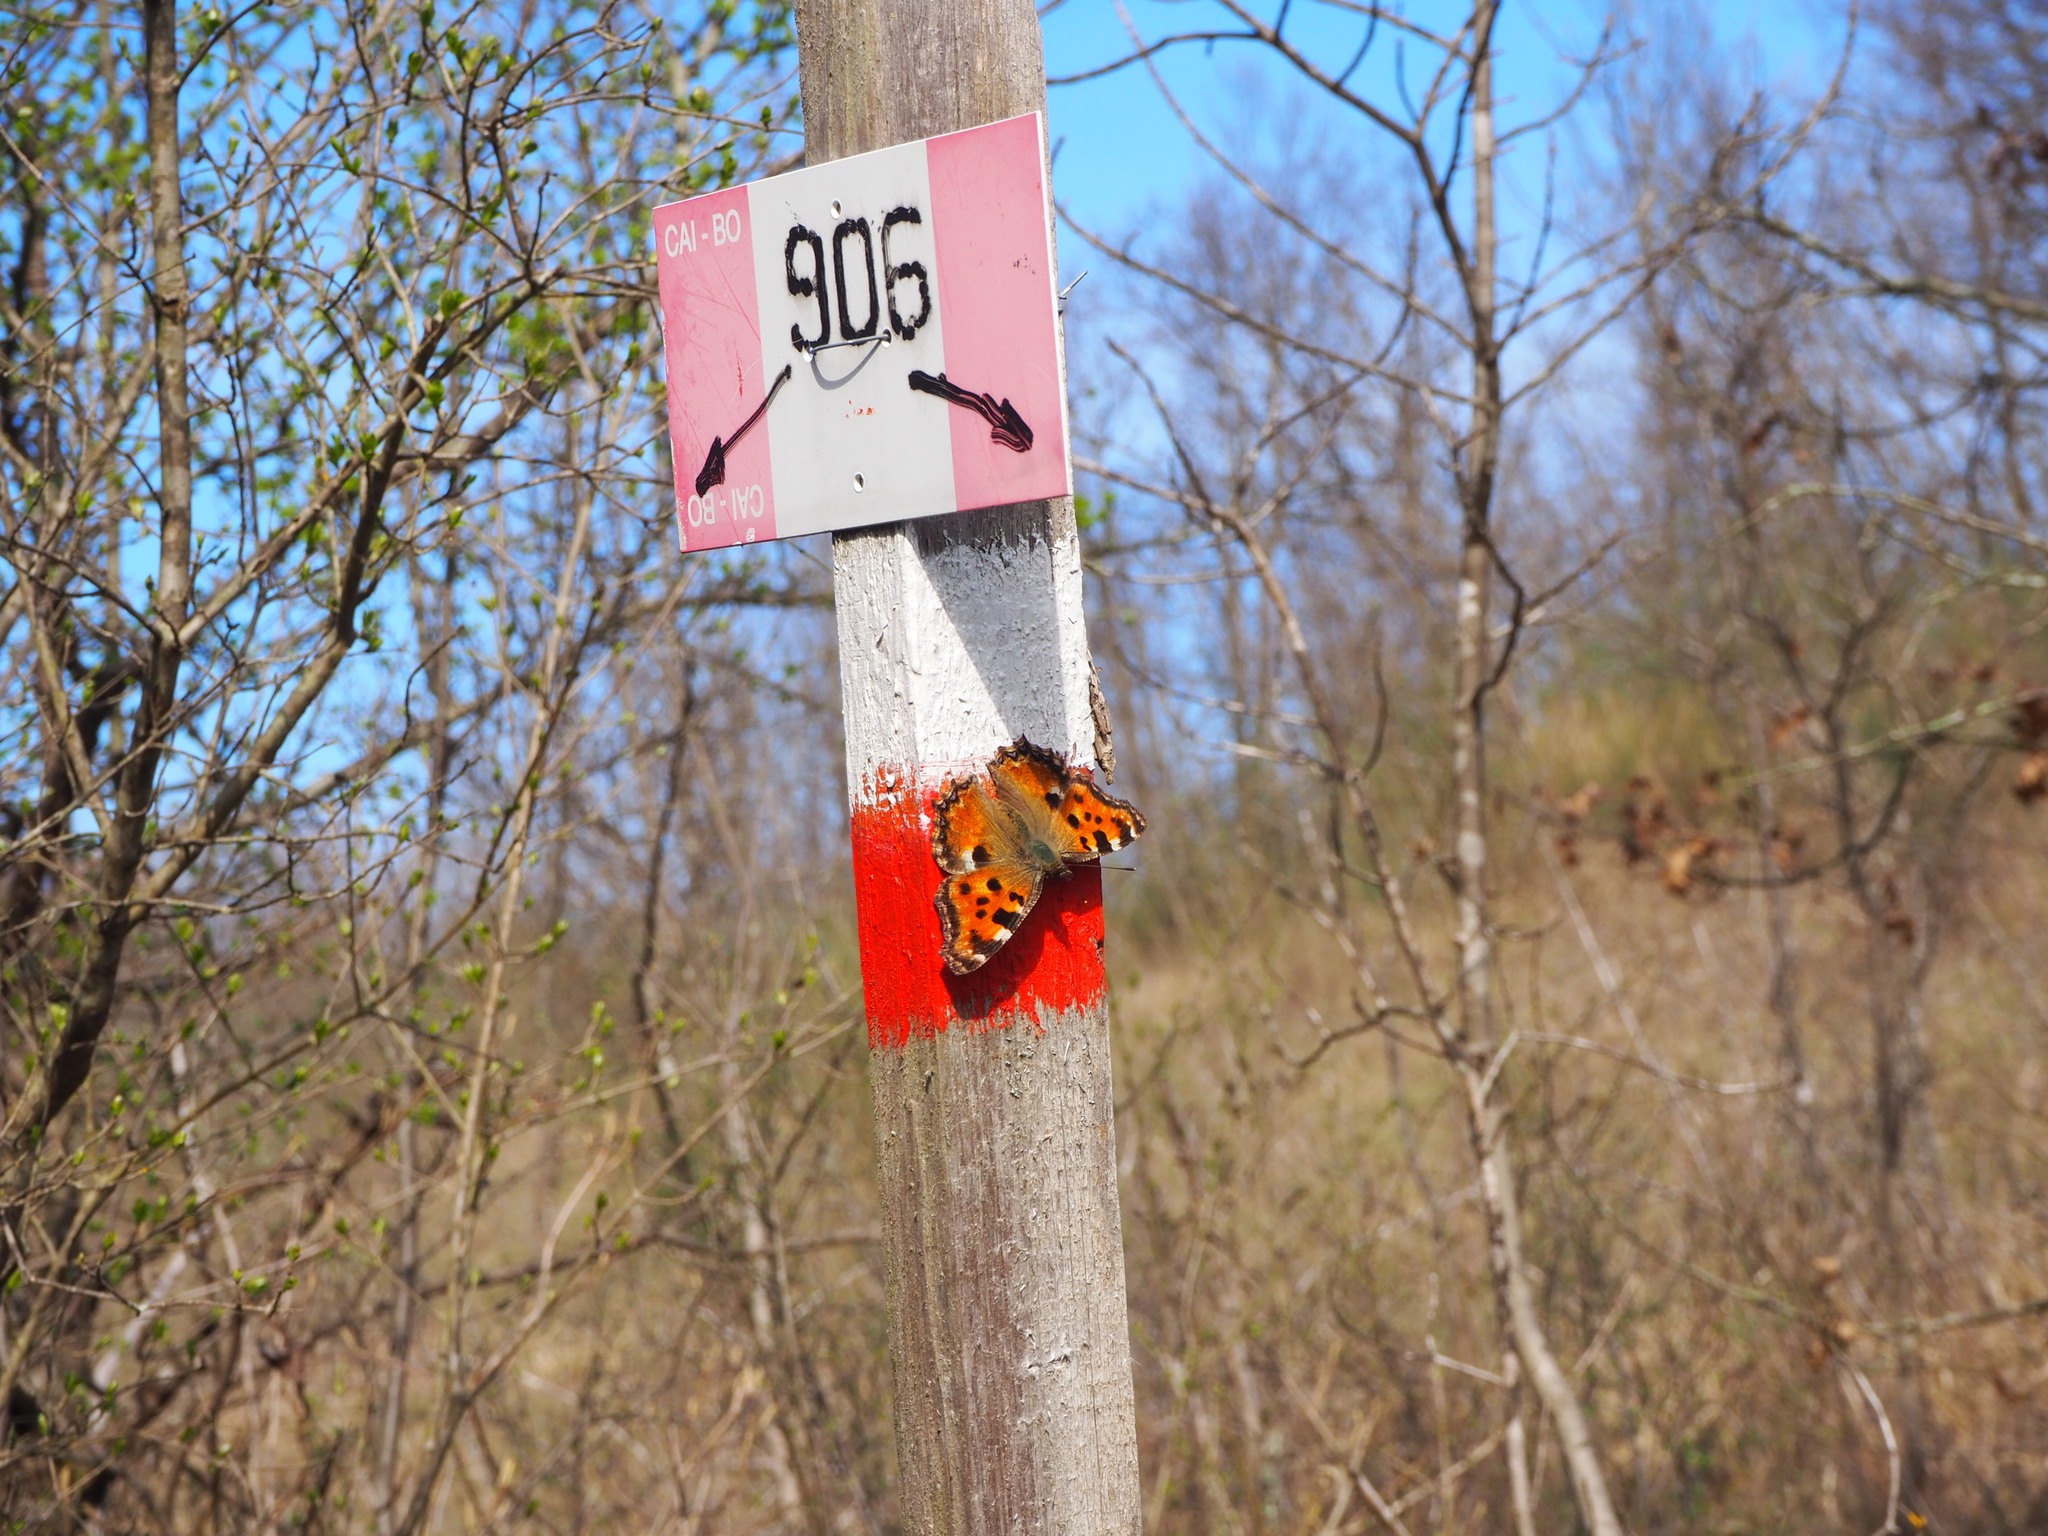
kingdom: Animalia
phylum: Arthropoda
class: Insecta
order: Lepidoptera
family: Nymphalidae
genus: Nymphalis
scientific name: Nymphalis polychloros
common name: Large tortoiseshell
